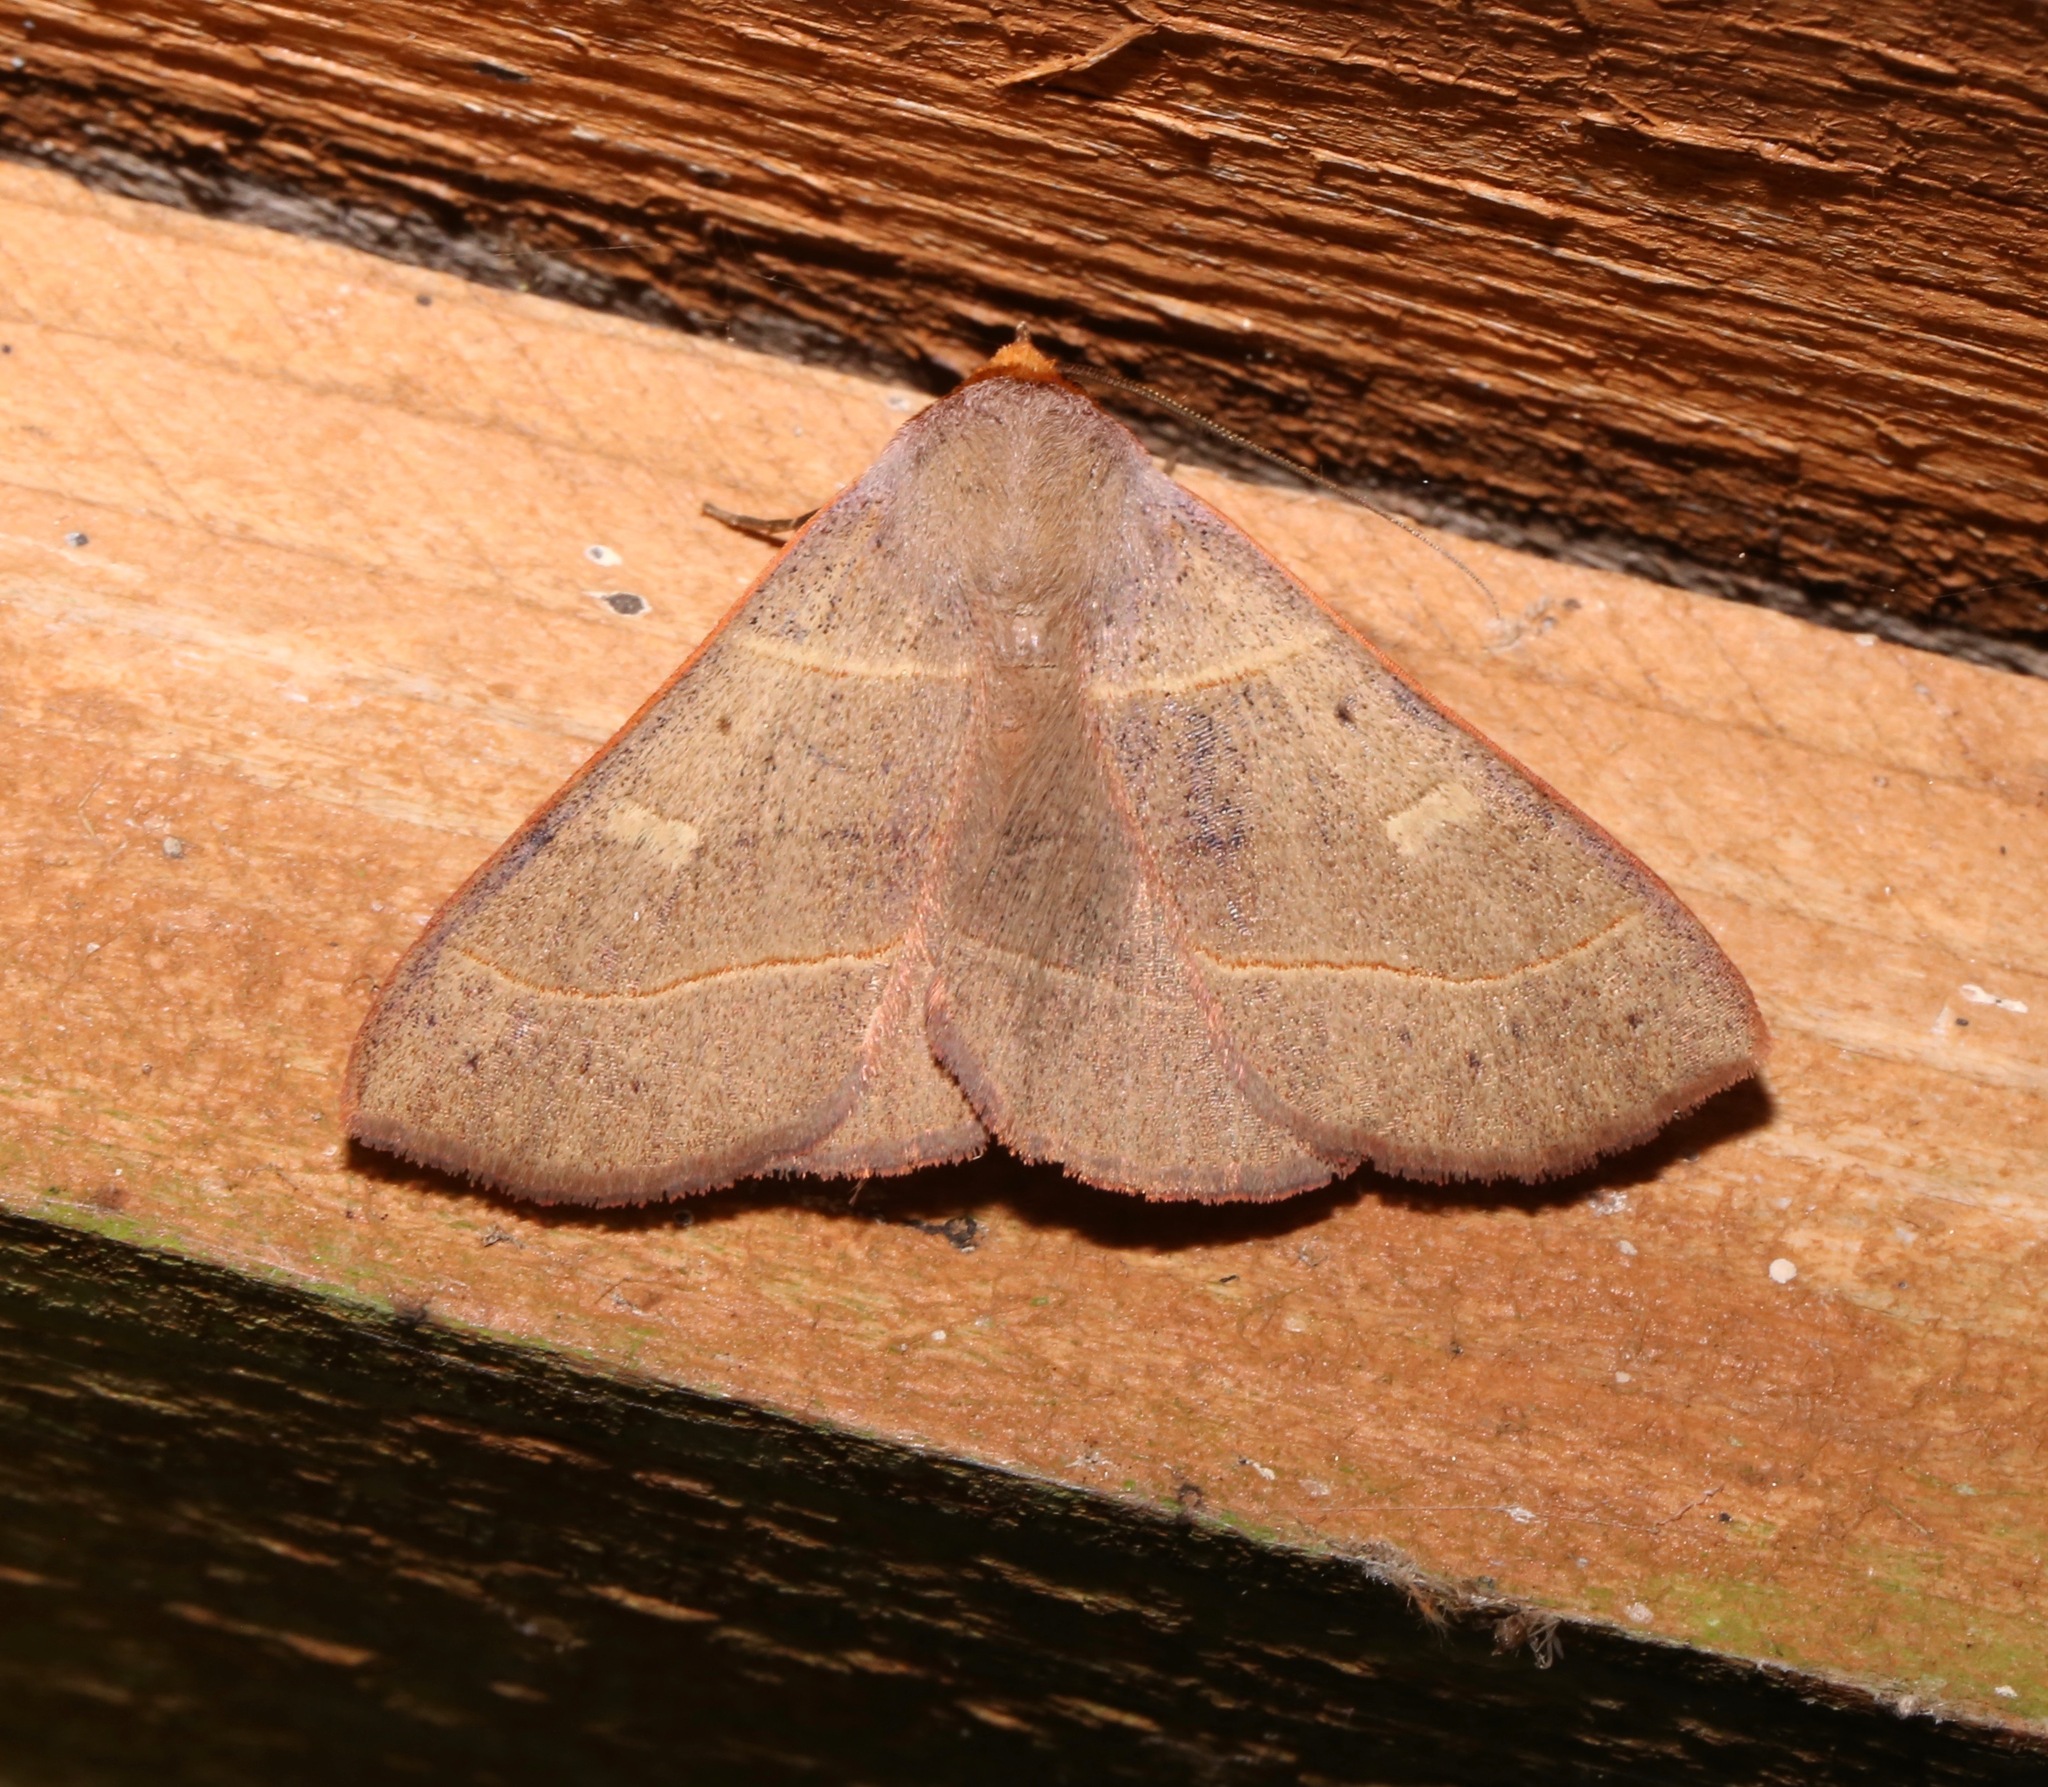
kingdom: Animalia
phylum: Arthropoda
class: Insecta
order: Lepidoptera
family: Erebidae
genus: Panopoda
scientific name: Panopoda rufimargo
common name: Red-lined panopoda moth
